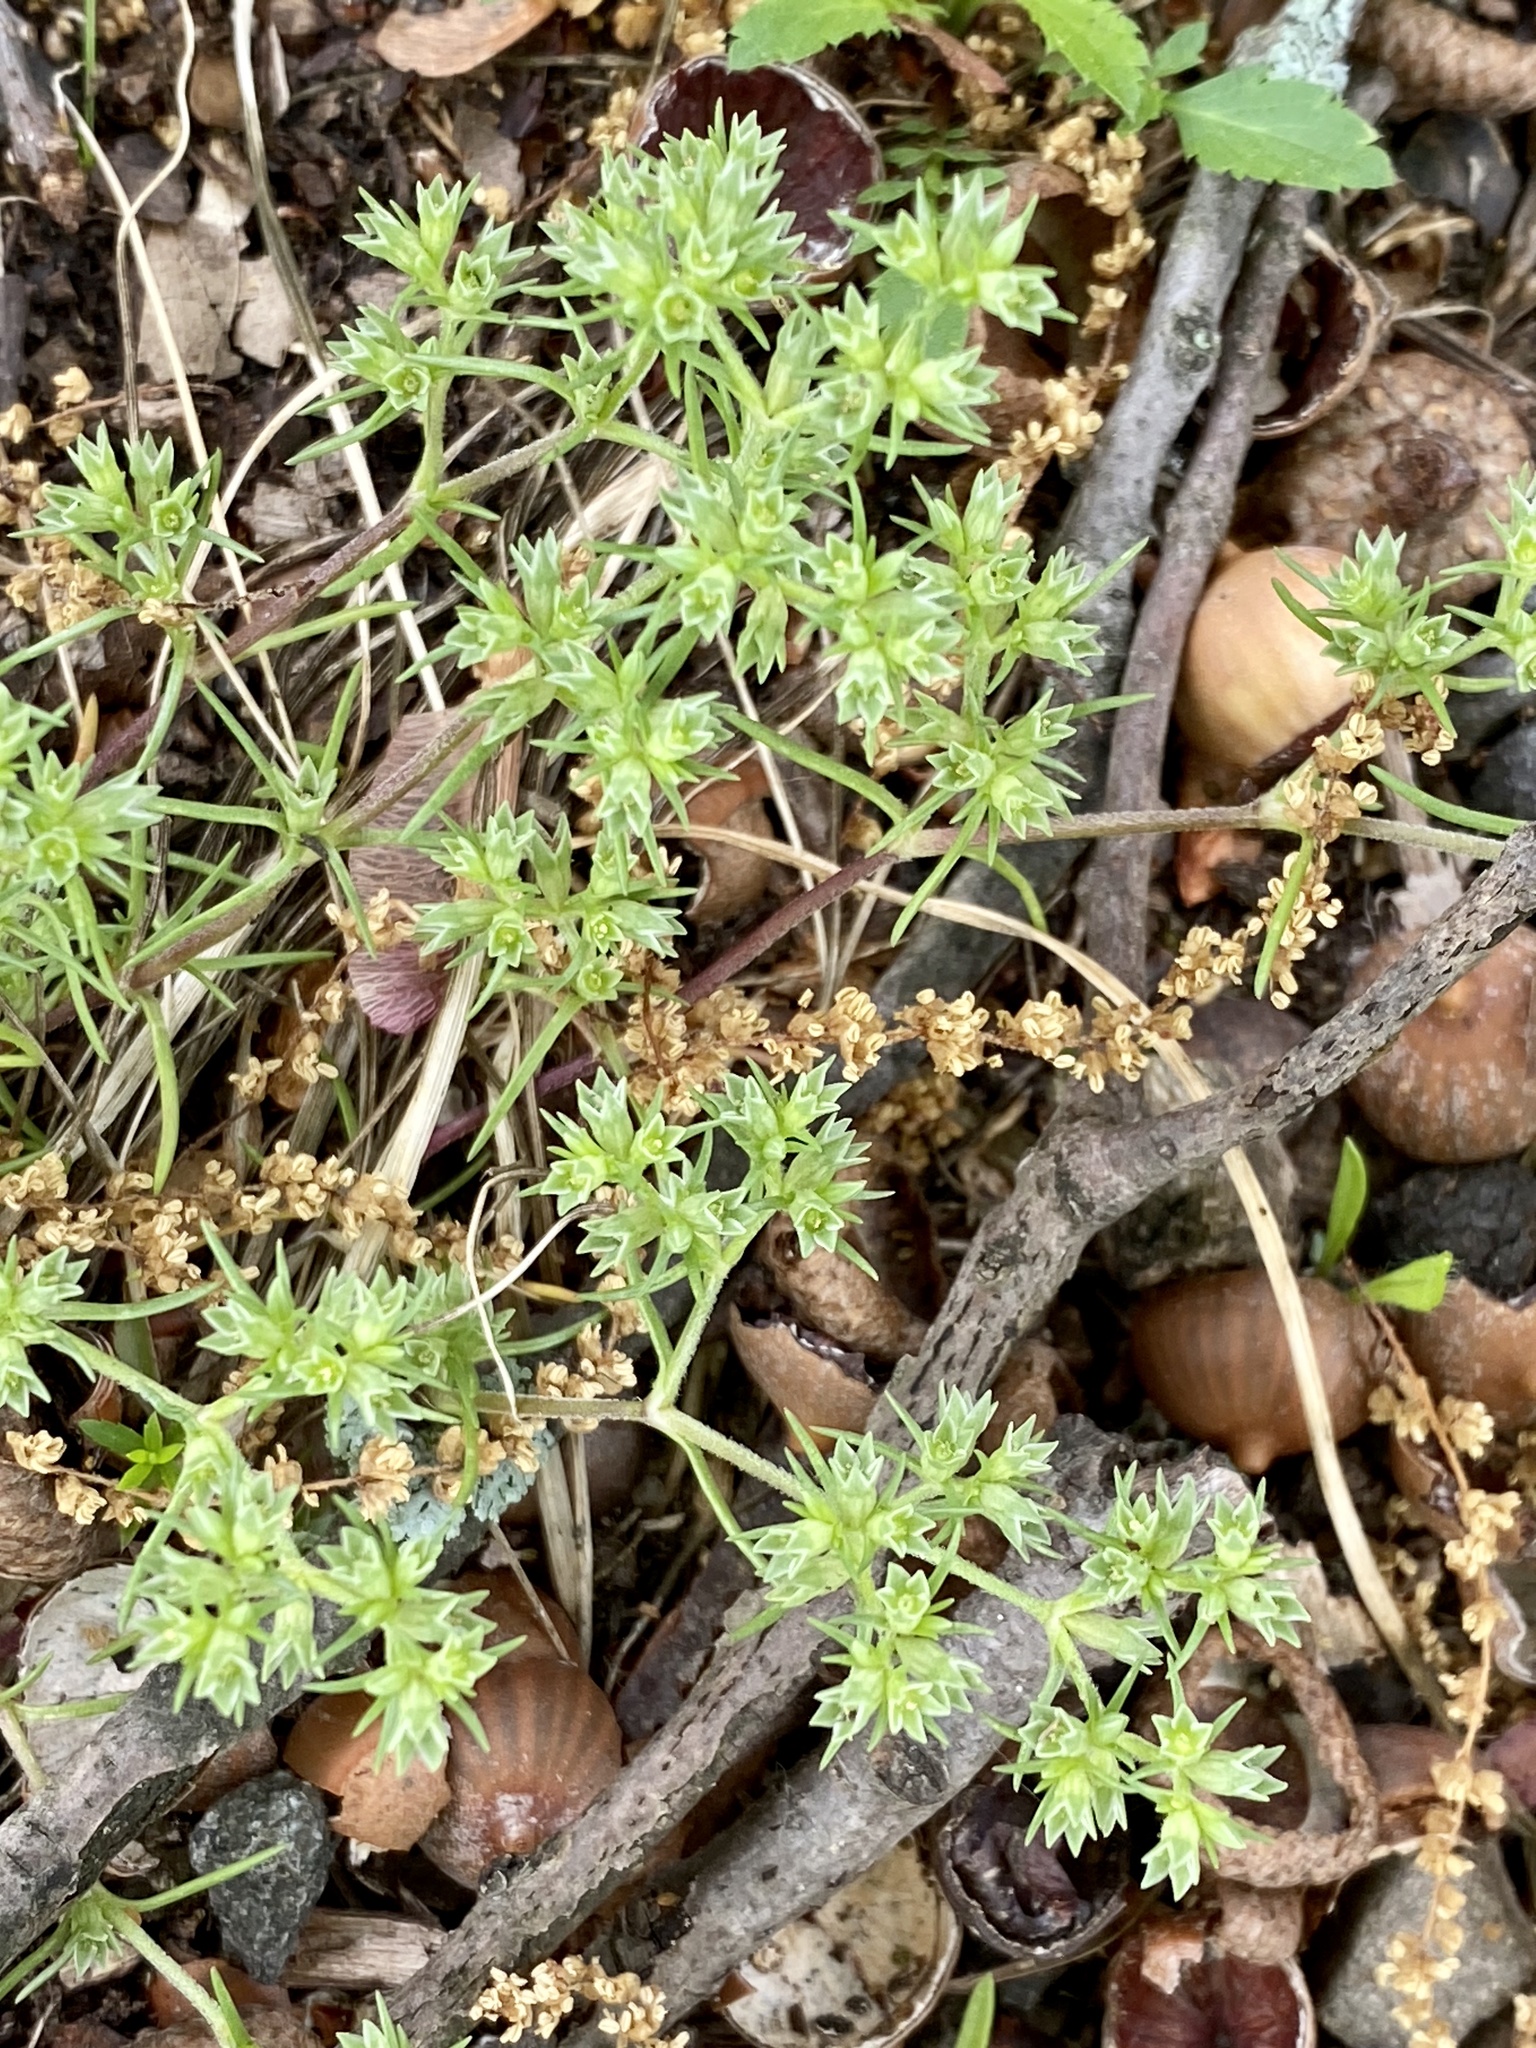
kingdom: Plantae
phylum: Tracheophyta
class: Magnoliopsida
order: Caryophyllales
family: Caryophyllaceae
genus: Scleranthus
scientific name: Scleranthus annuus
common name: Annual knawel
